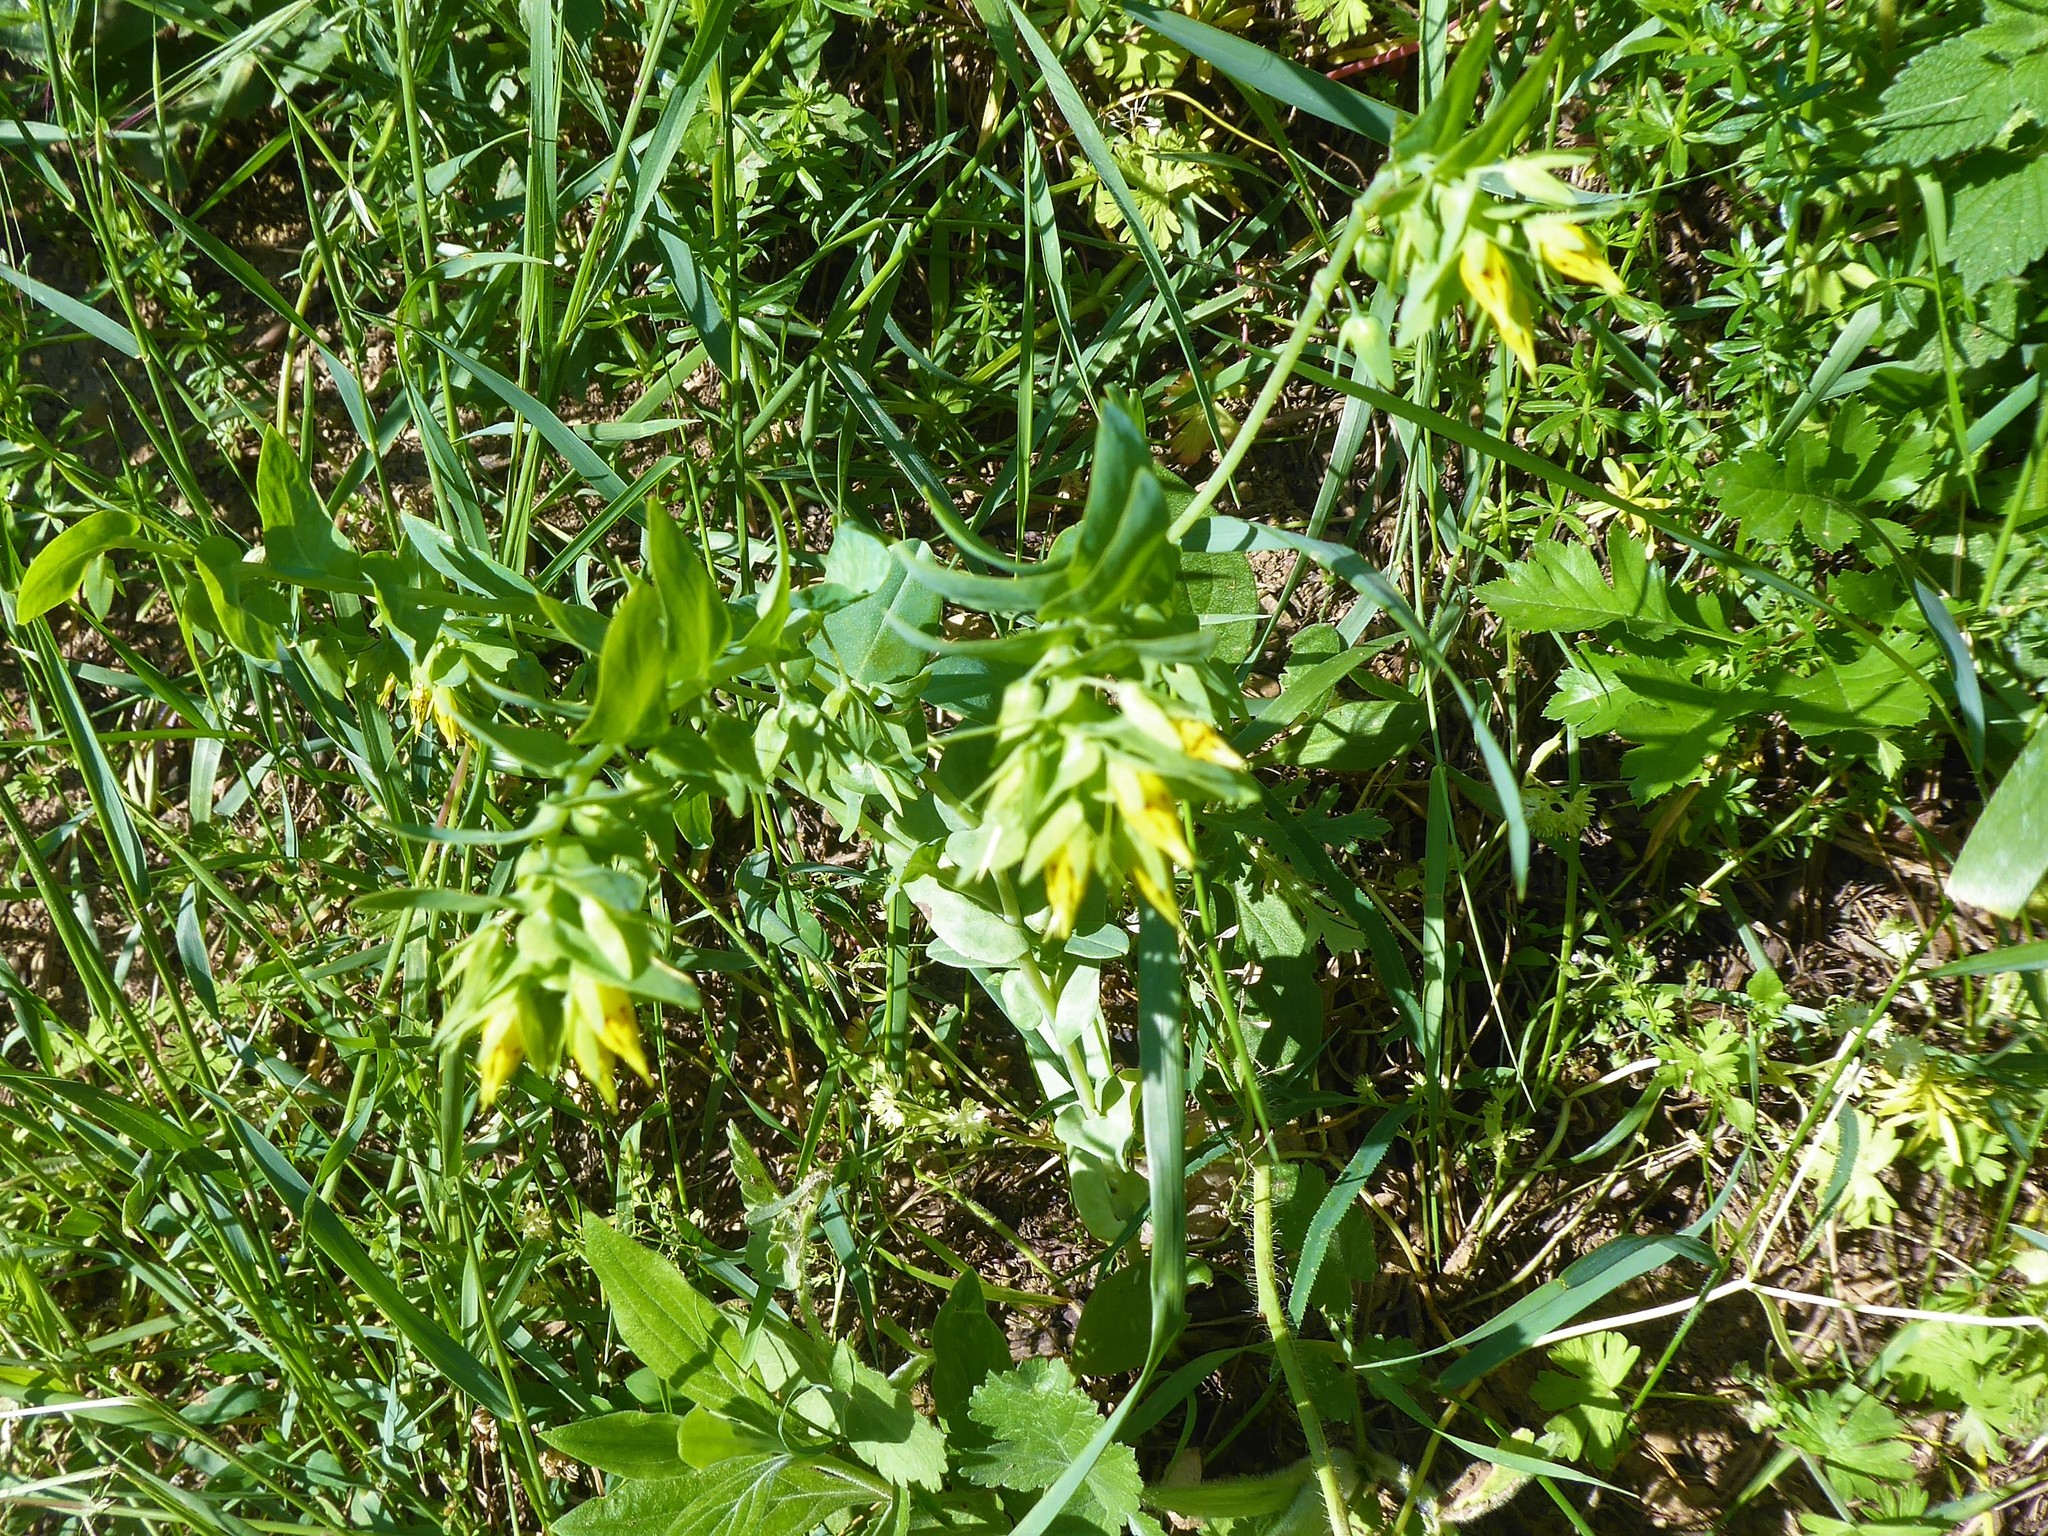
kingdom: Plantae
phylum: Tracheophyta
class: Magnoliopsida
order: Boraginales
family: Boraginaceae
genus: Cerinthe
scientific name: Cerinthe minor
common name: Lesser honeywort
